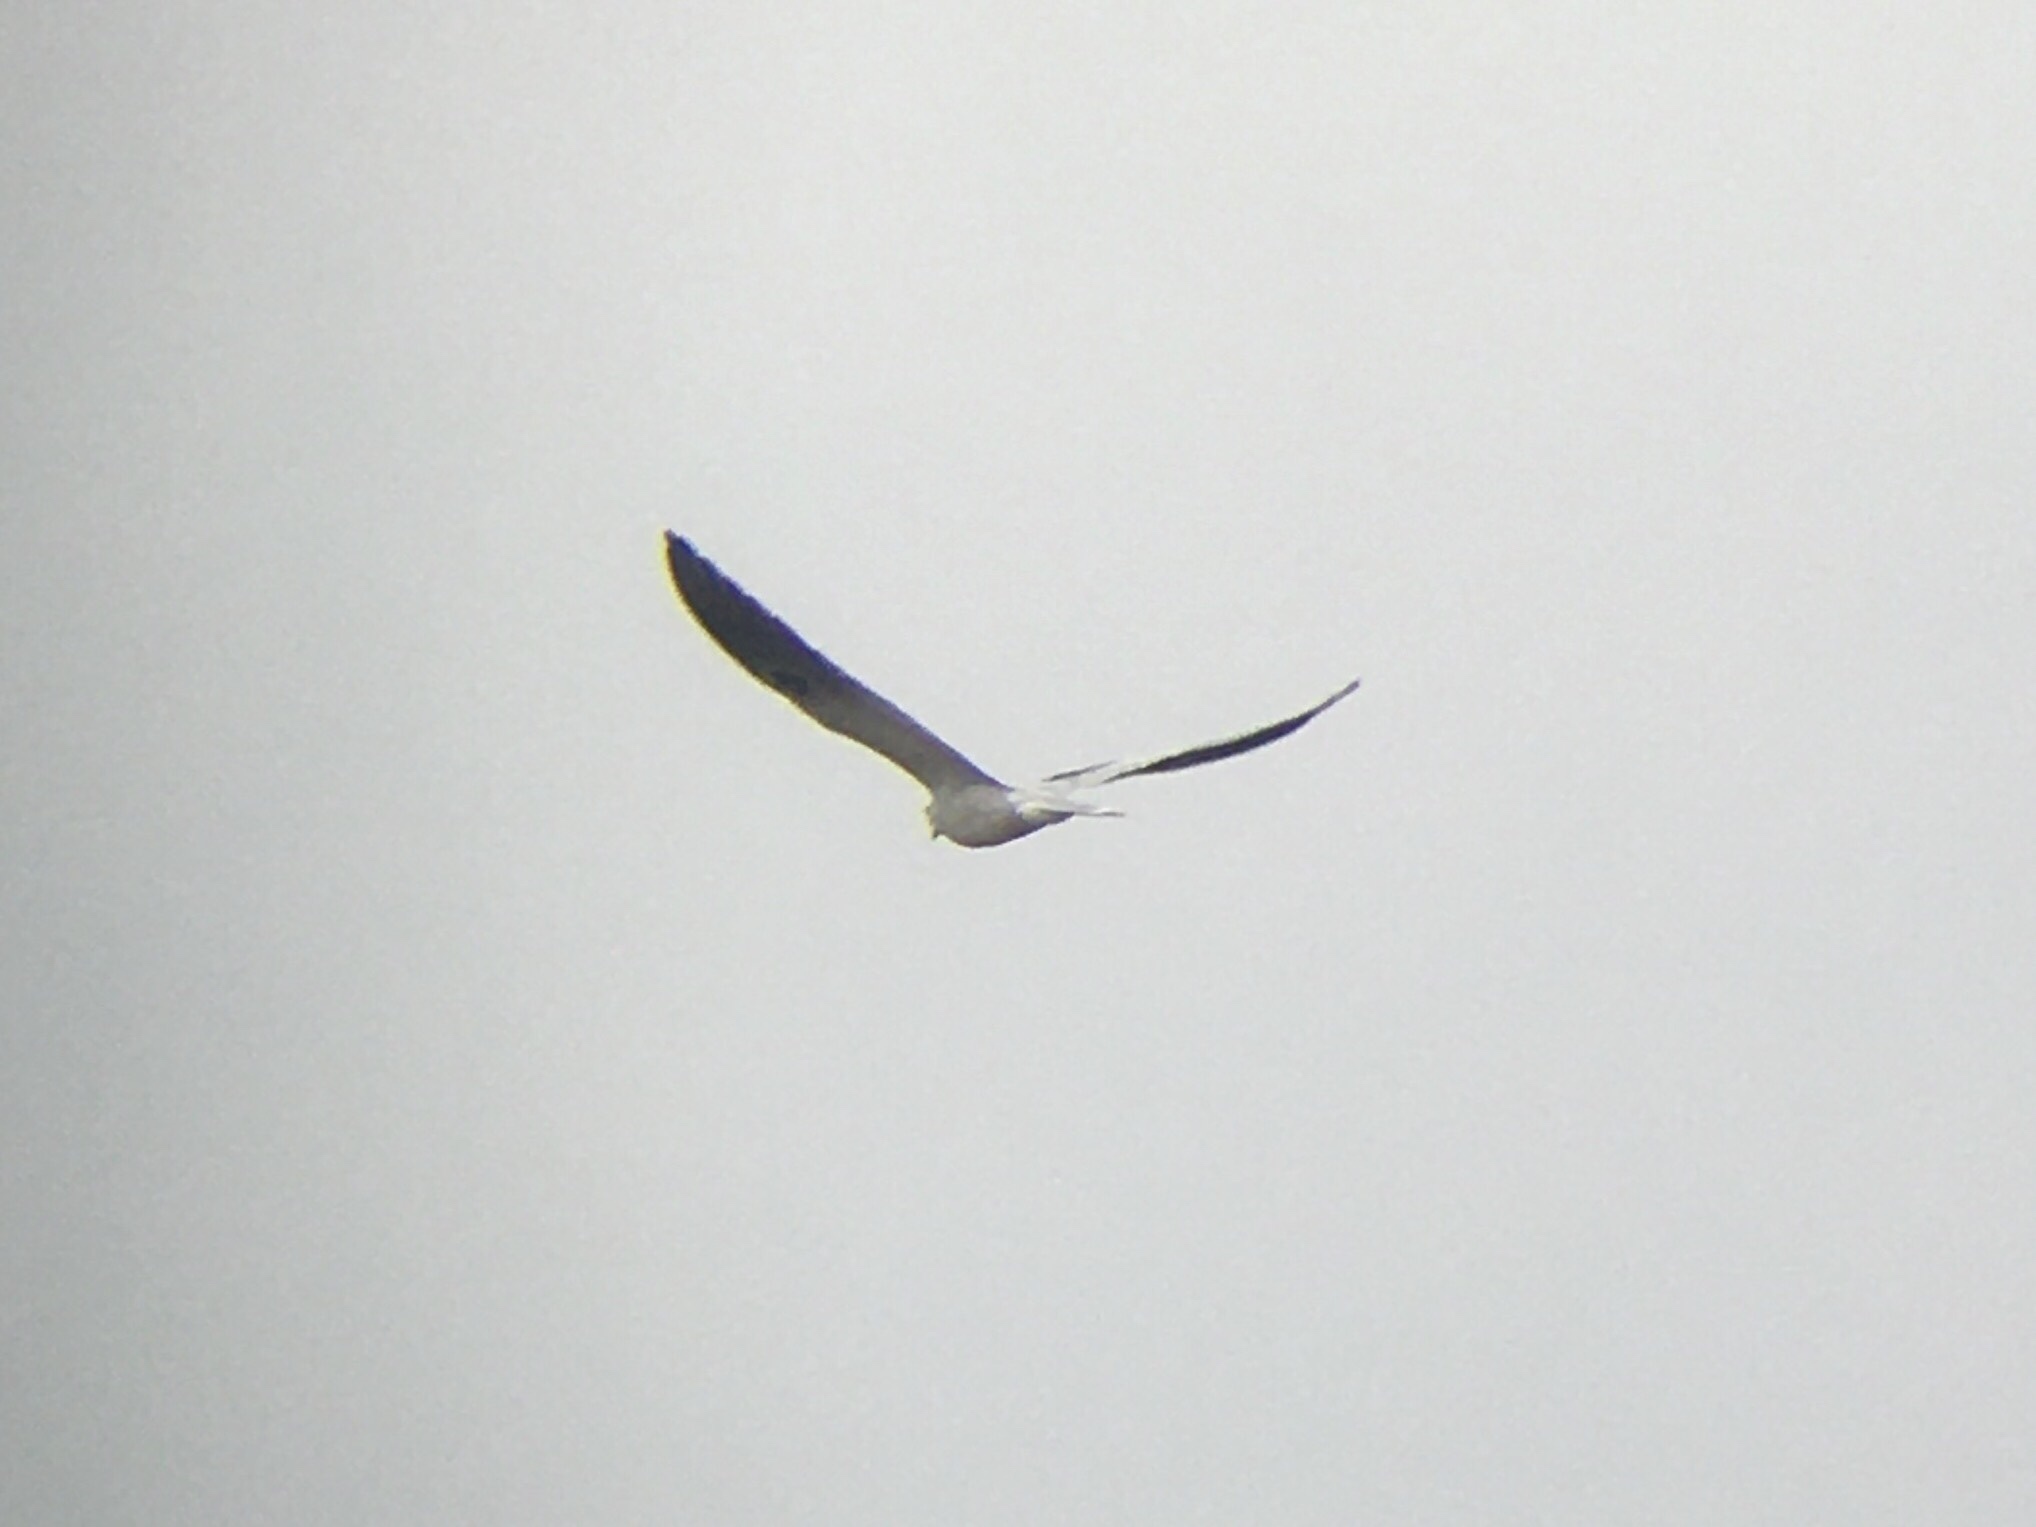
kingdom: Animalia
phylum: Chordata
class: Aves
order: Accipitriformes
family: Accipitridae
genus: Elanus
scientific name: Elanus leucurus
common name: White-tailed kite
